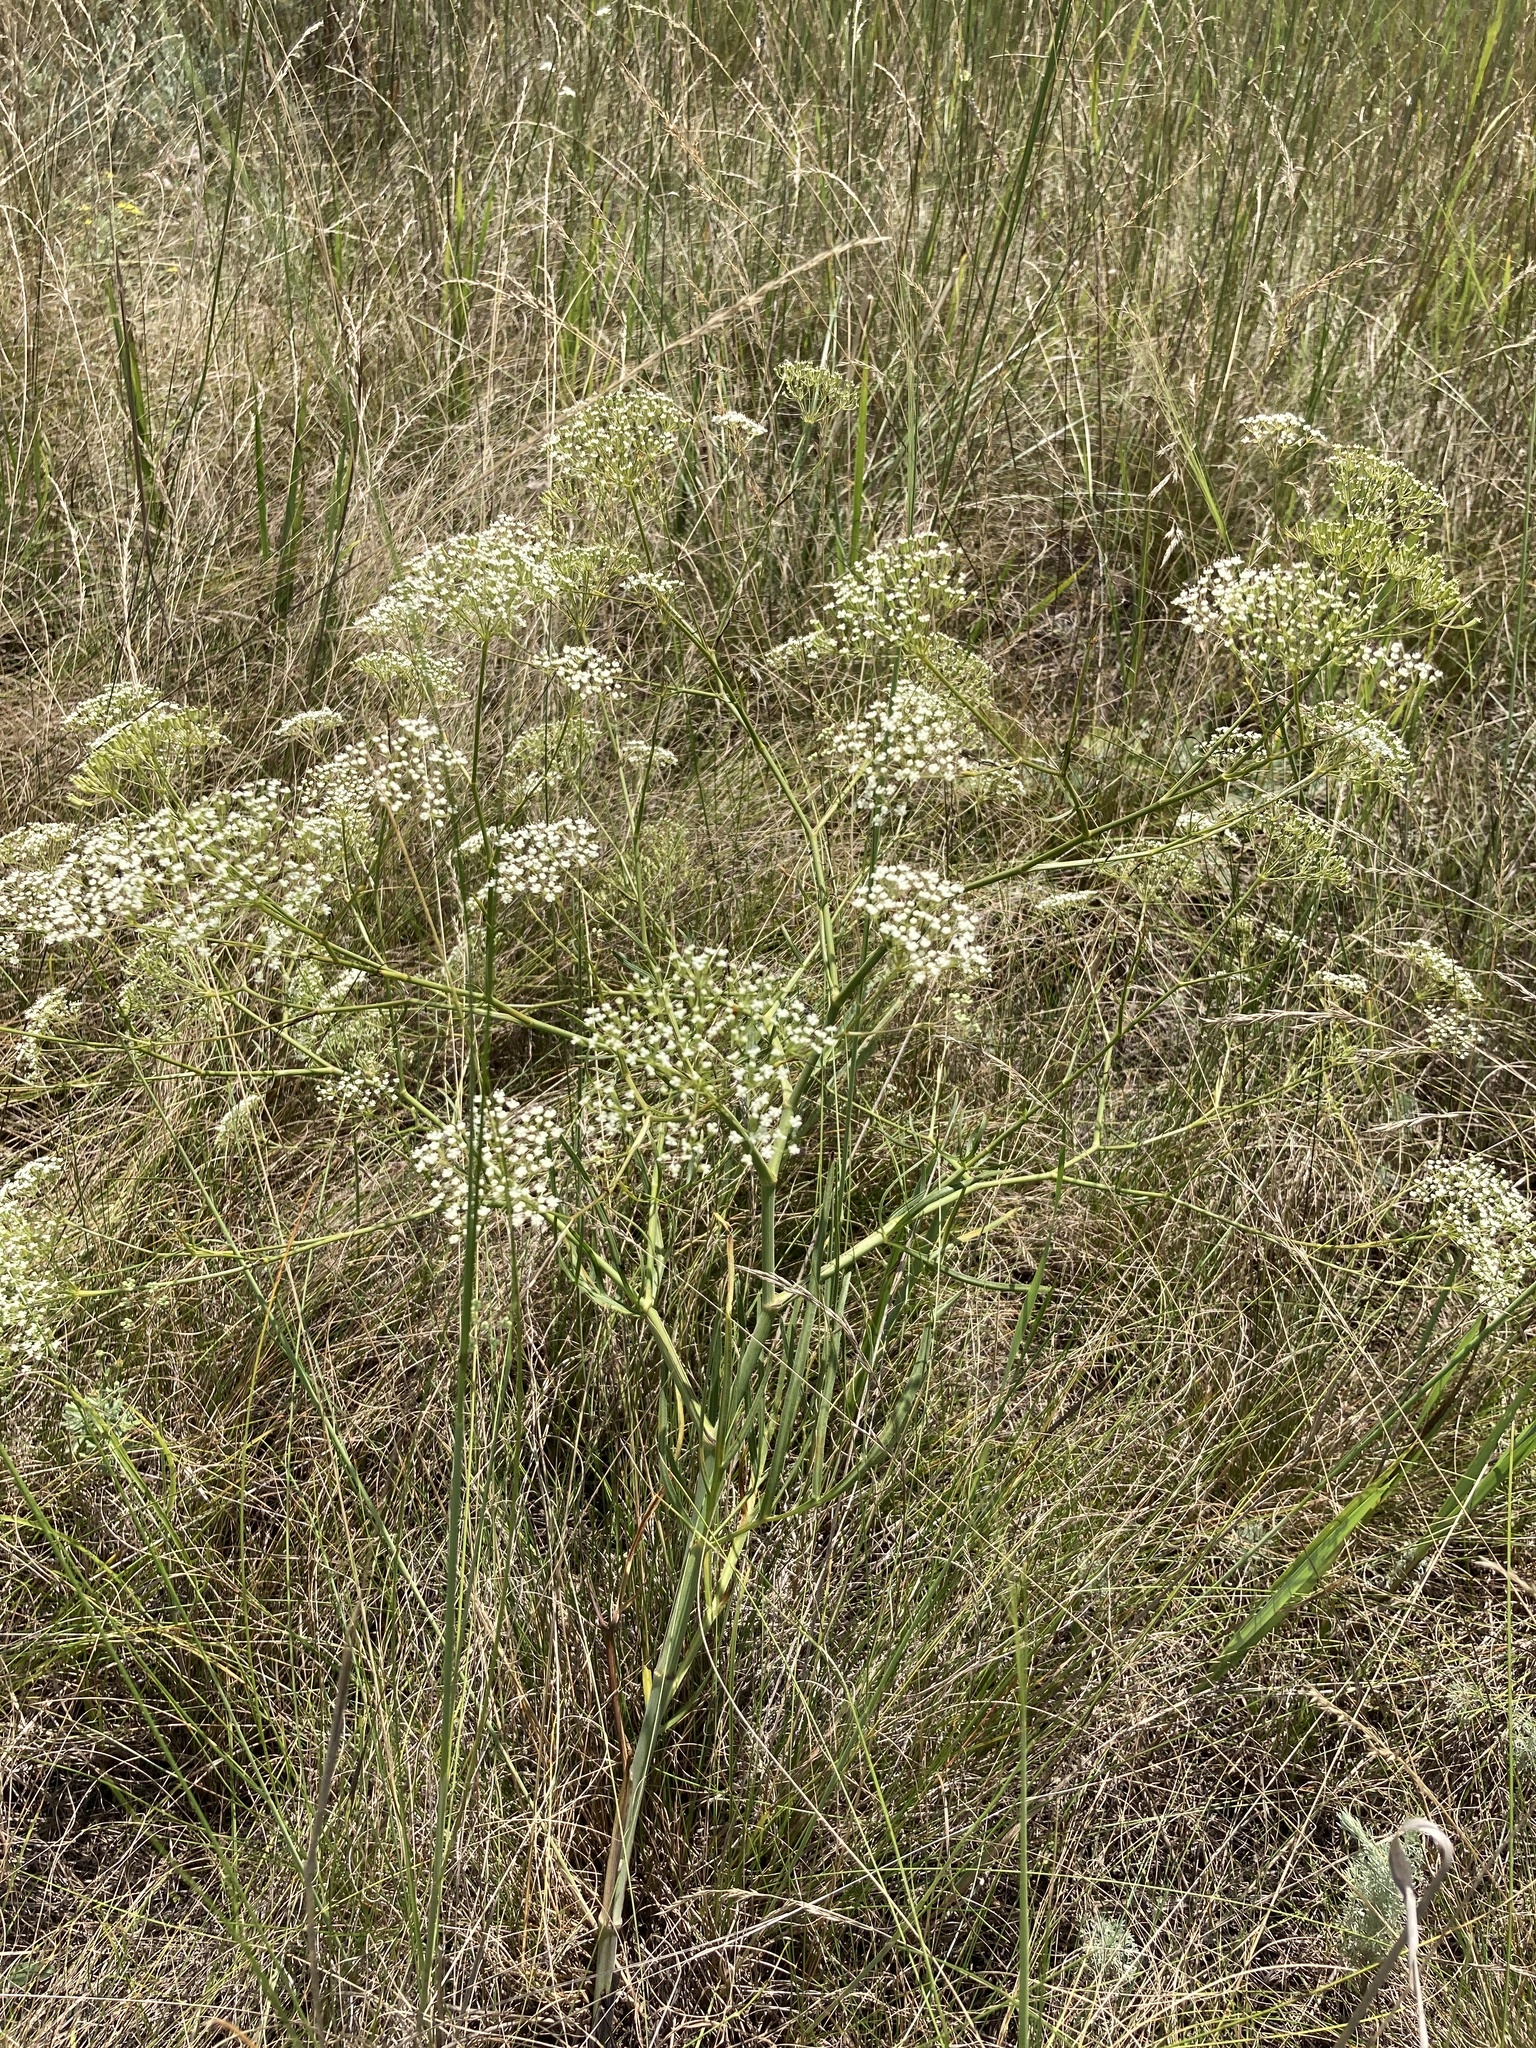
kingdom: Plantae
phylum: Tracheophyta
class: Magnoliopsida
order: Apiales
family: Apiaceae
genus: Falcaria
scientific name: Falcaria vulgaris
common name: Longleaf
